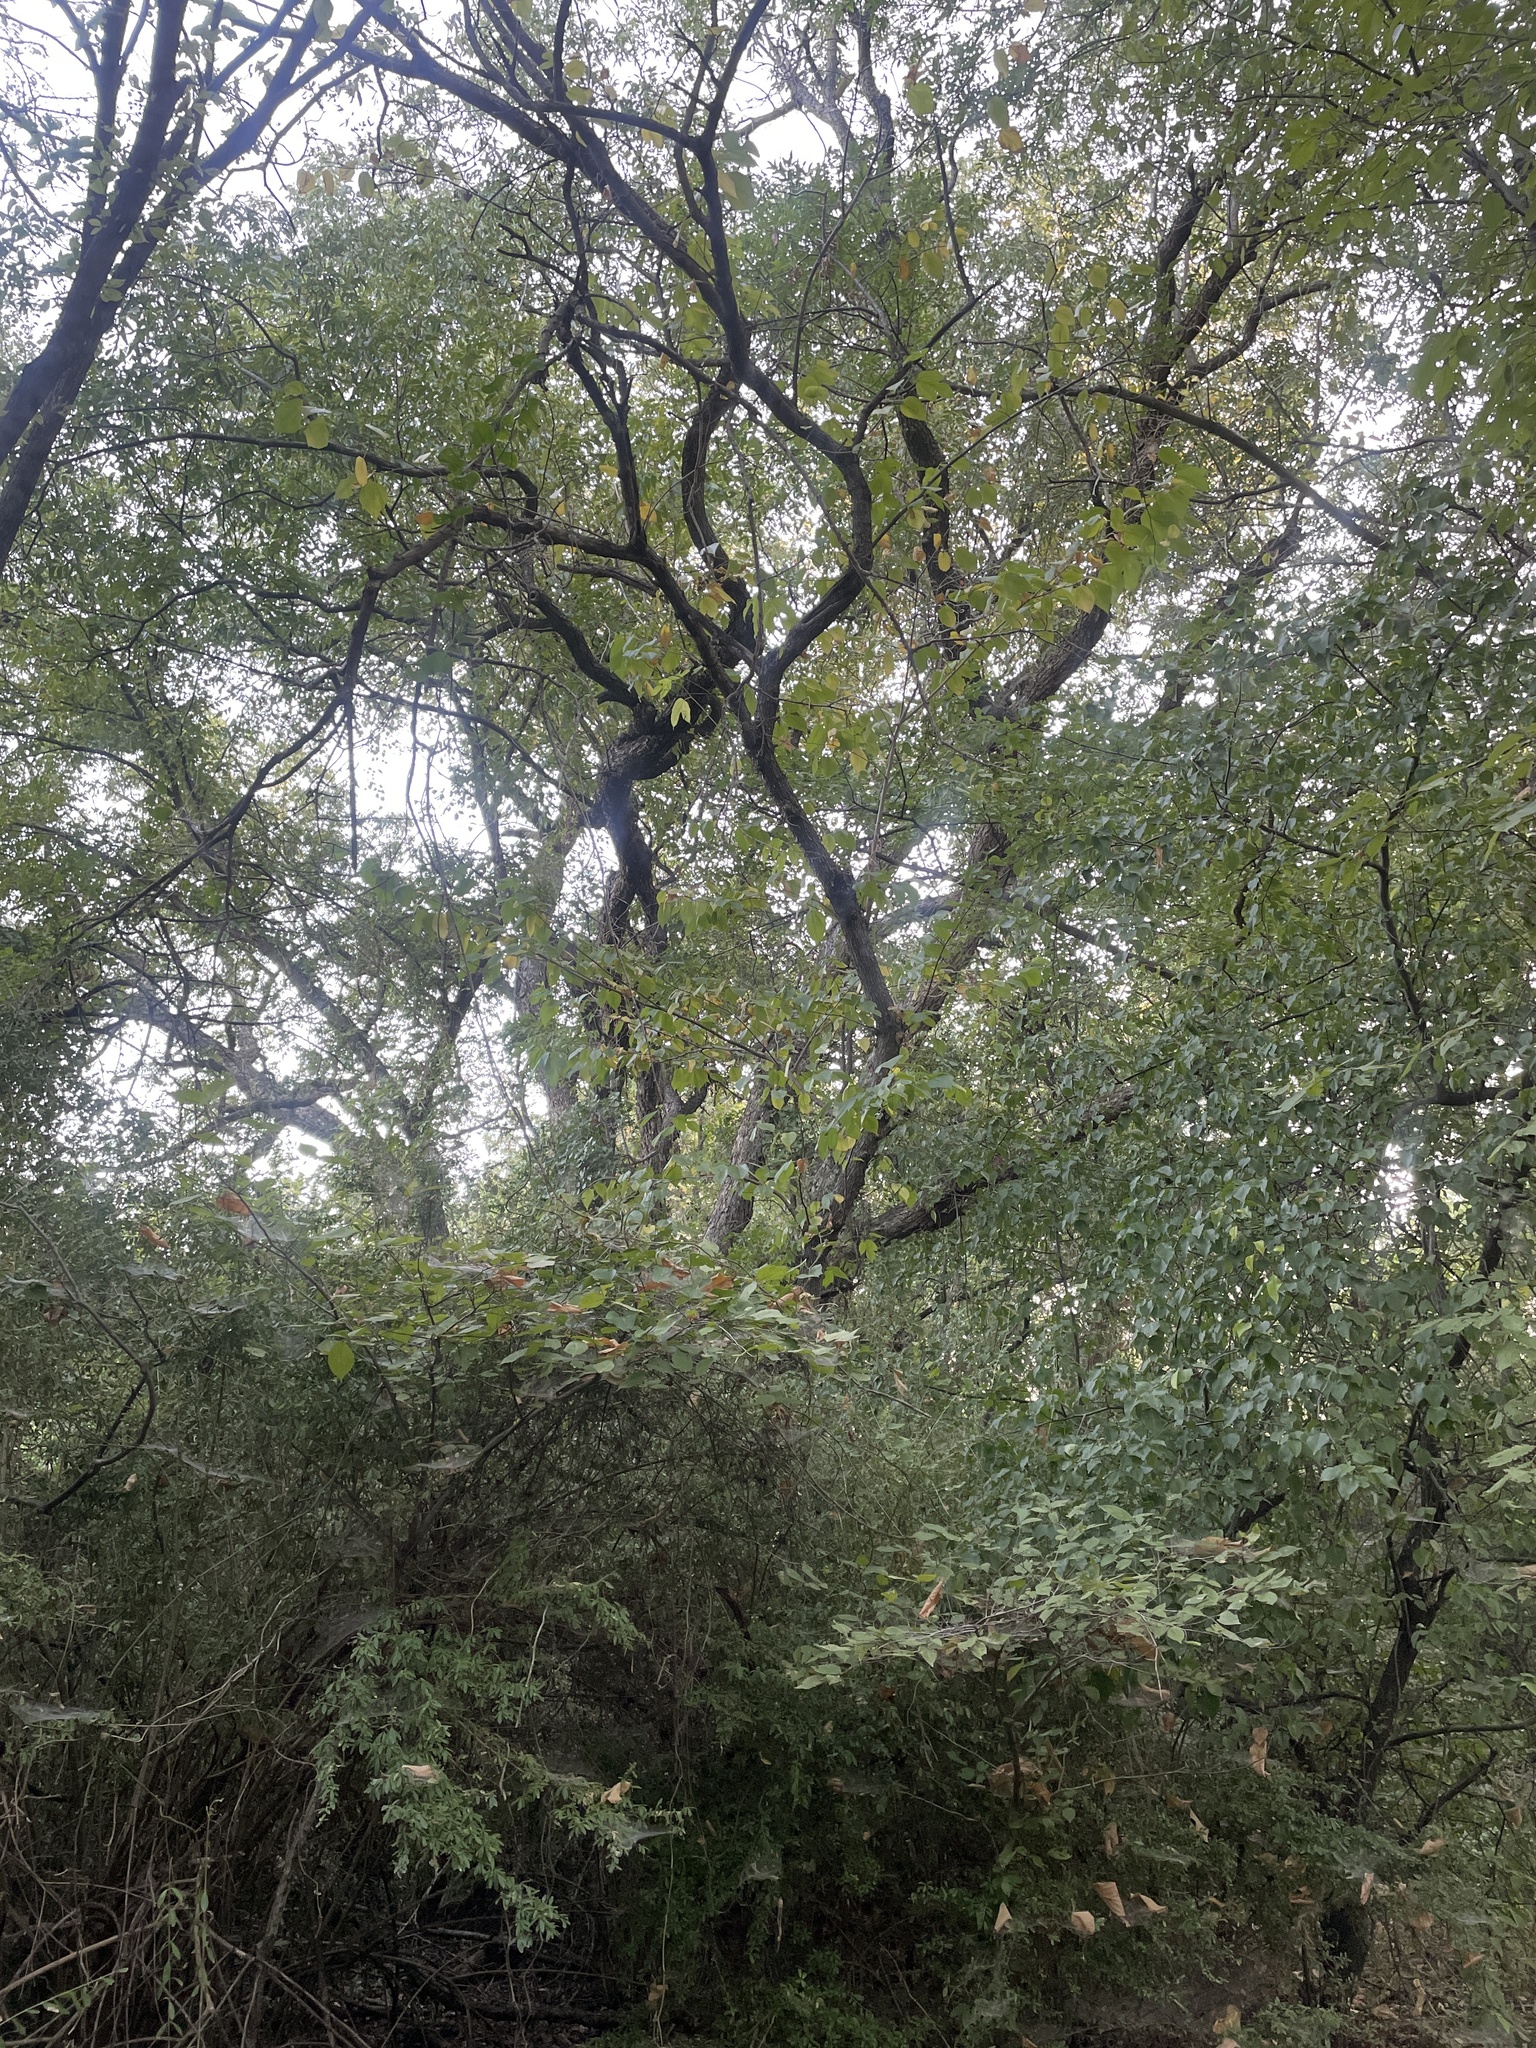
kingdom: Plantae
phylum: Tracheophyta
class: Magnoliopsida
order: Rosales
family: Moraceae
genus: Maclura
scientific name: Maclura pomifera
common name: Osage-orange
